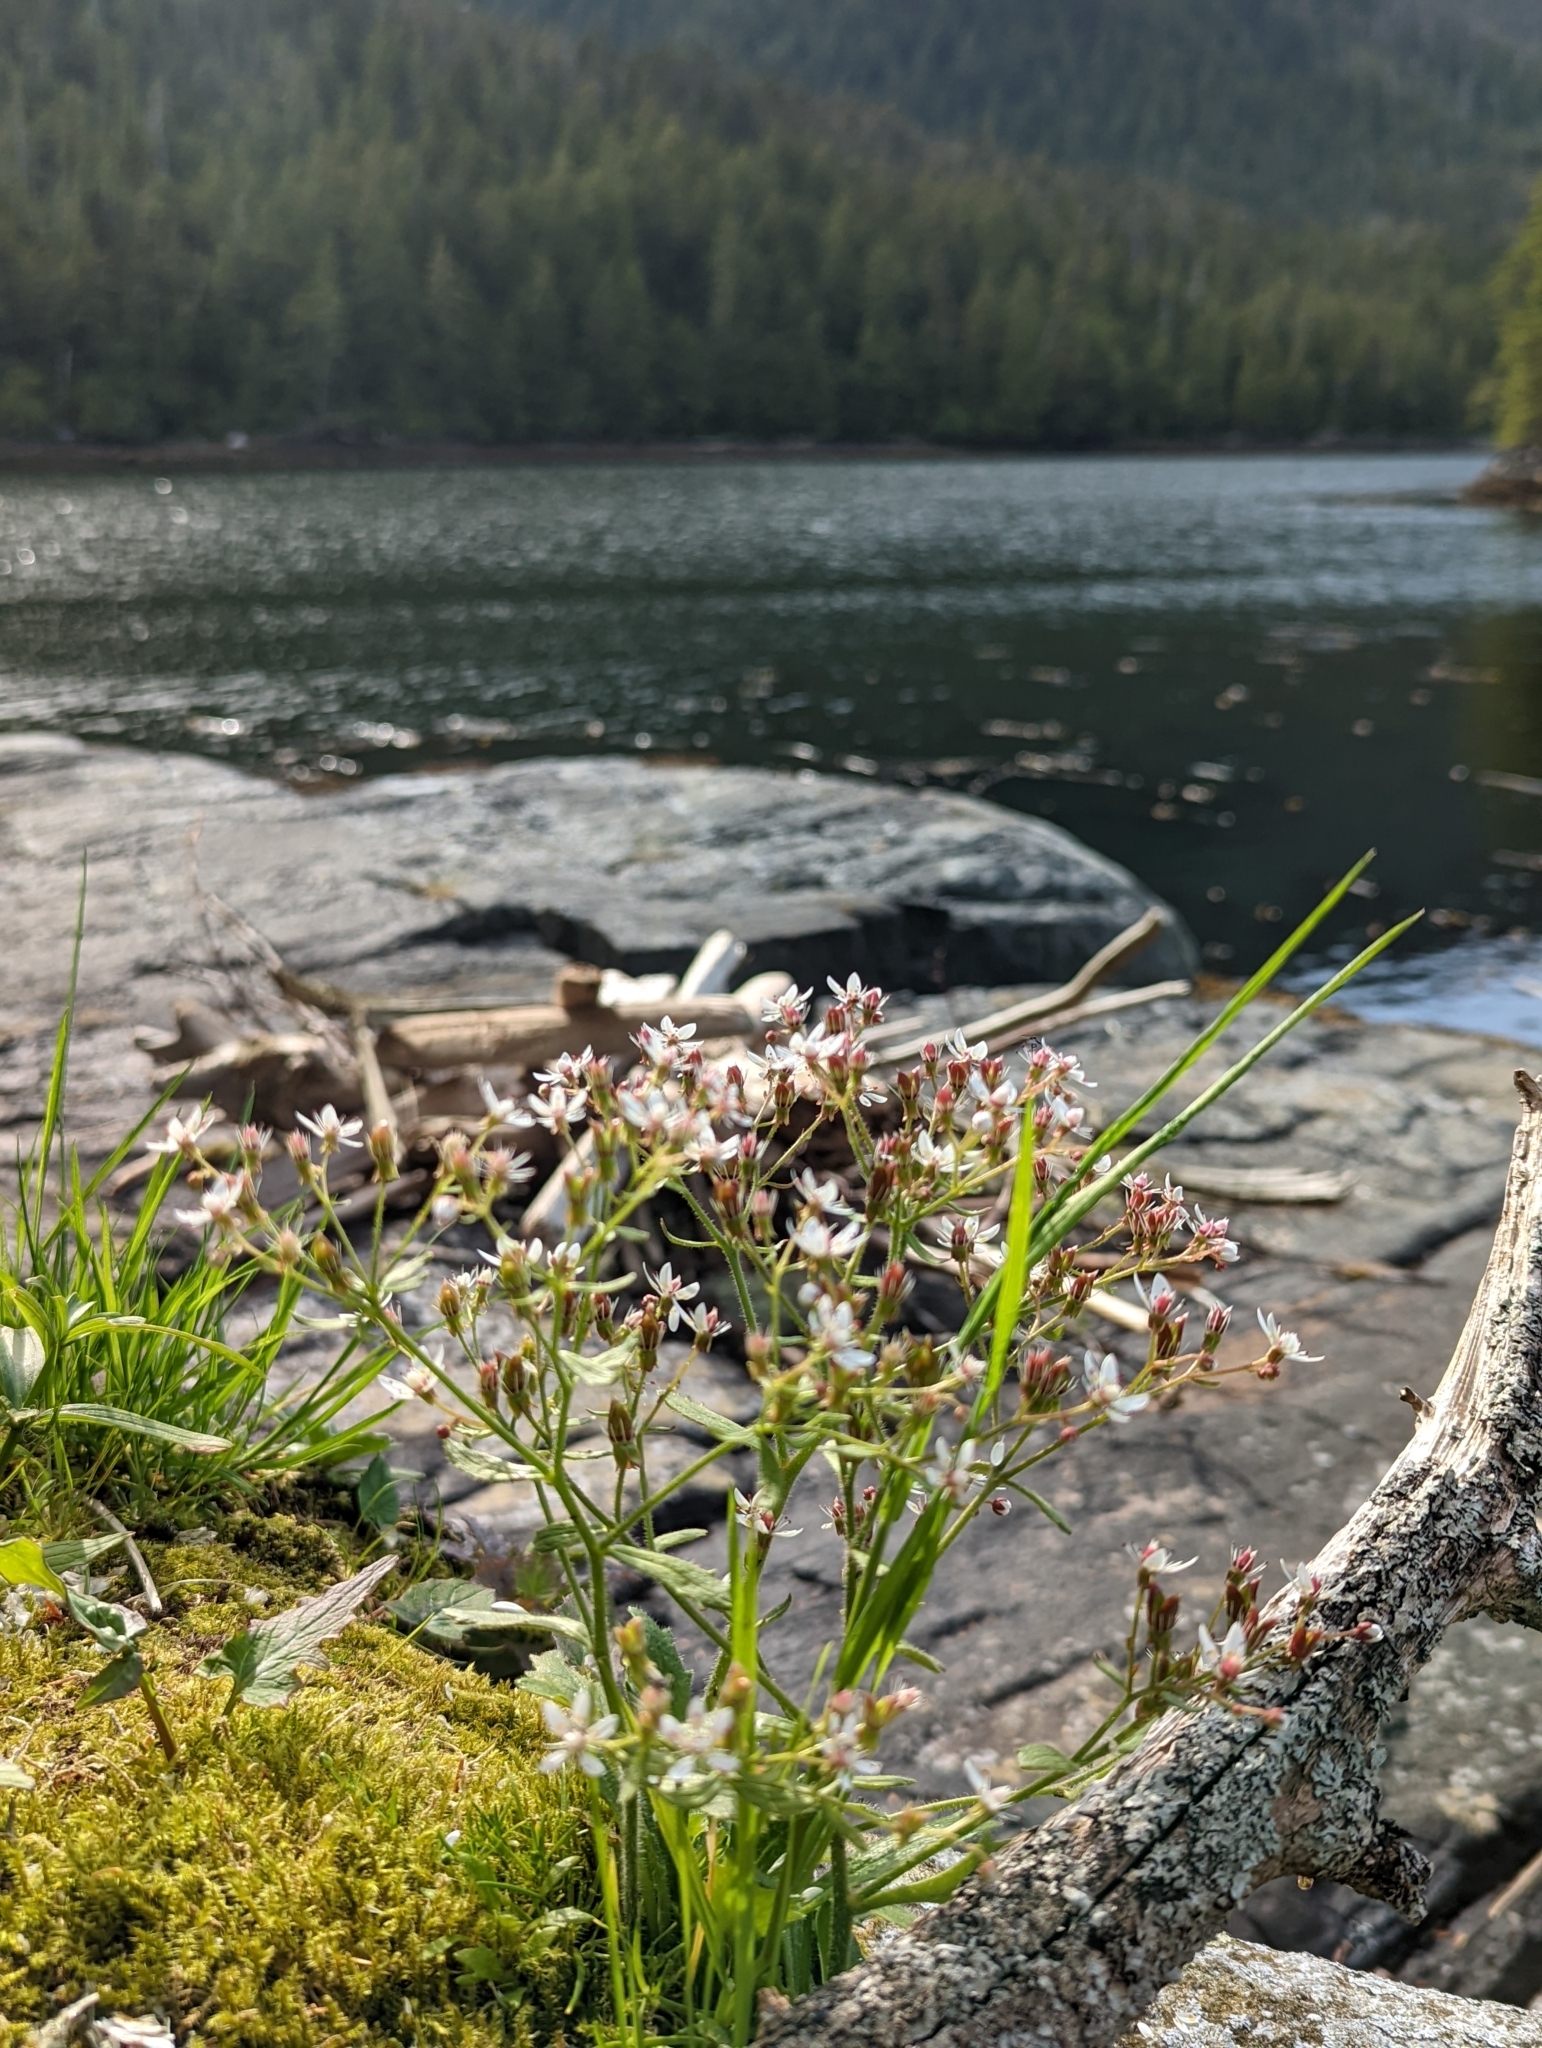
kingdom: Plantae
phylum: Tracheophyta
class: Magnoliopsida
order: Saxifragales
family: Saxifragaceae
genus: Micranthes
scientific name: Micranthes ferruginea
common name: Rusty saxifrage
